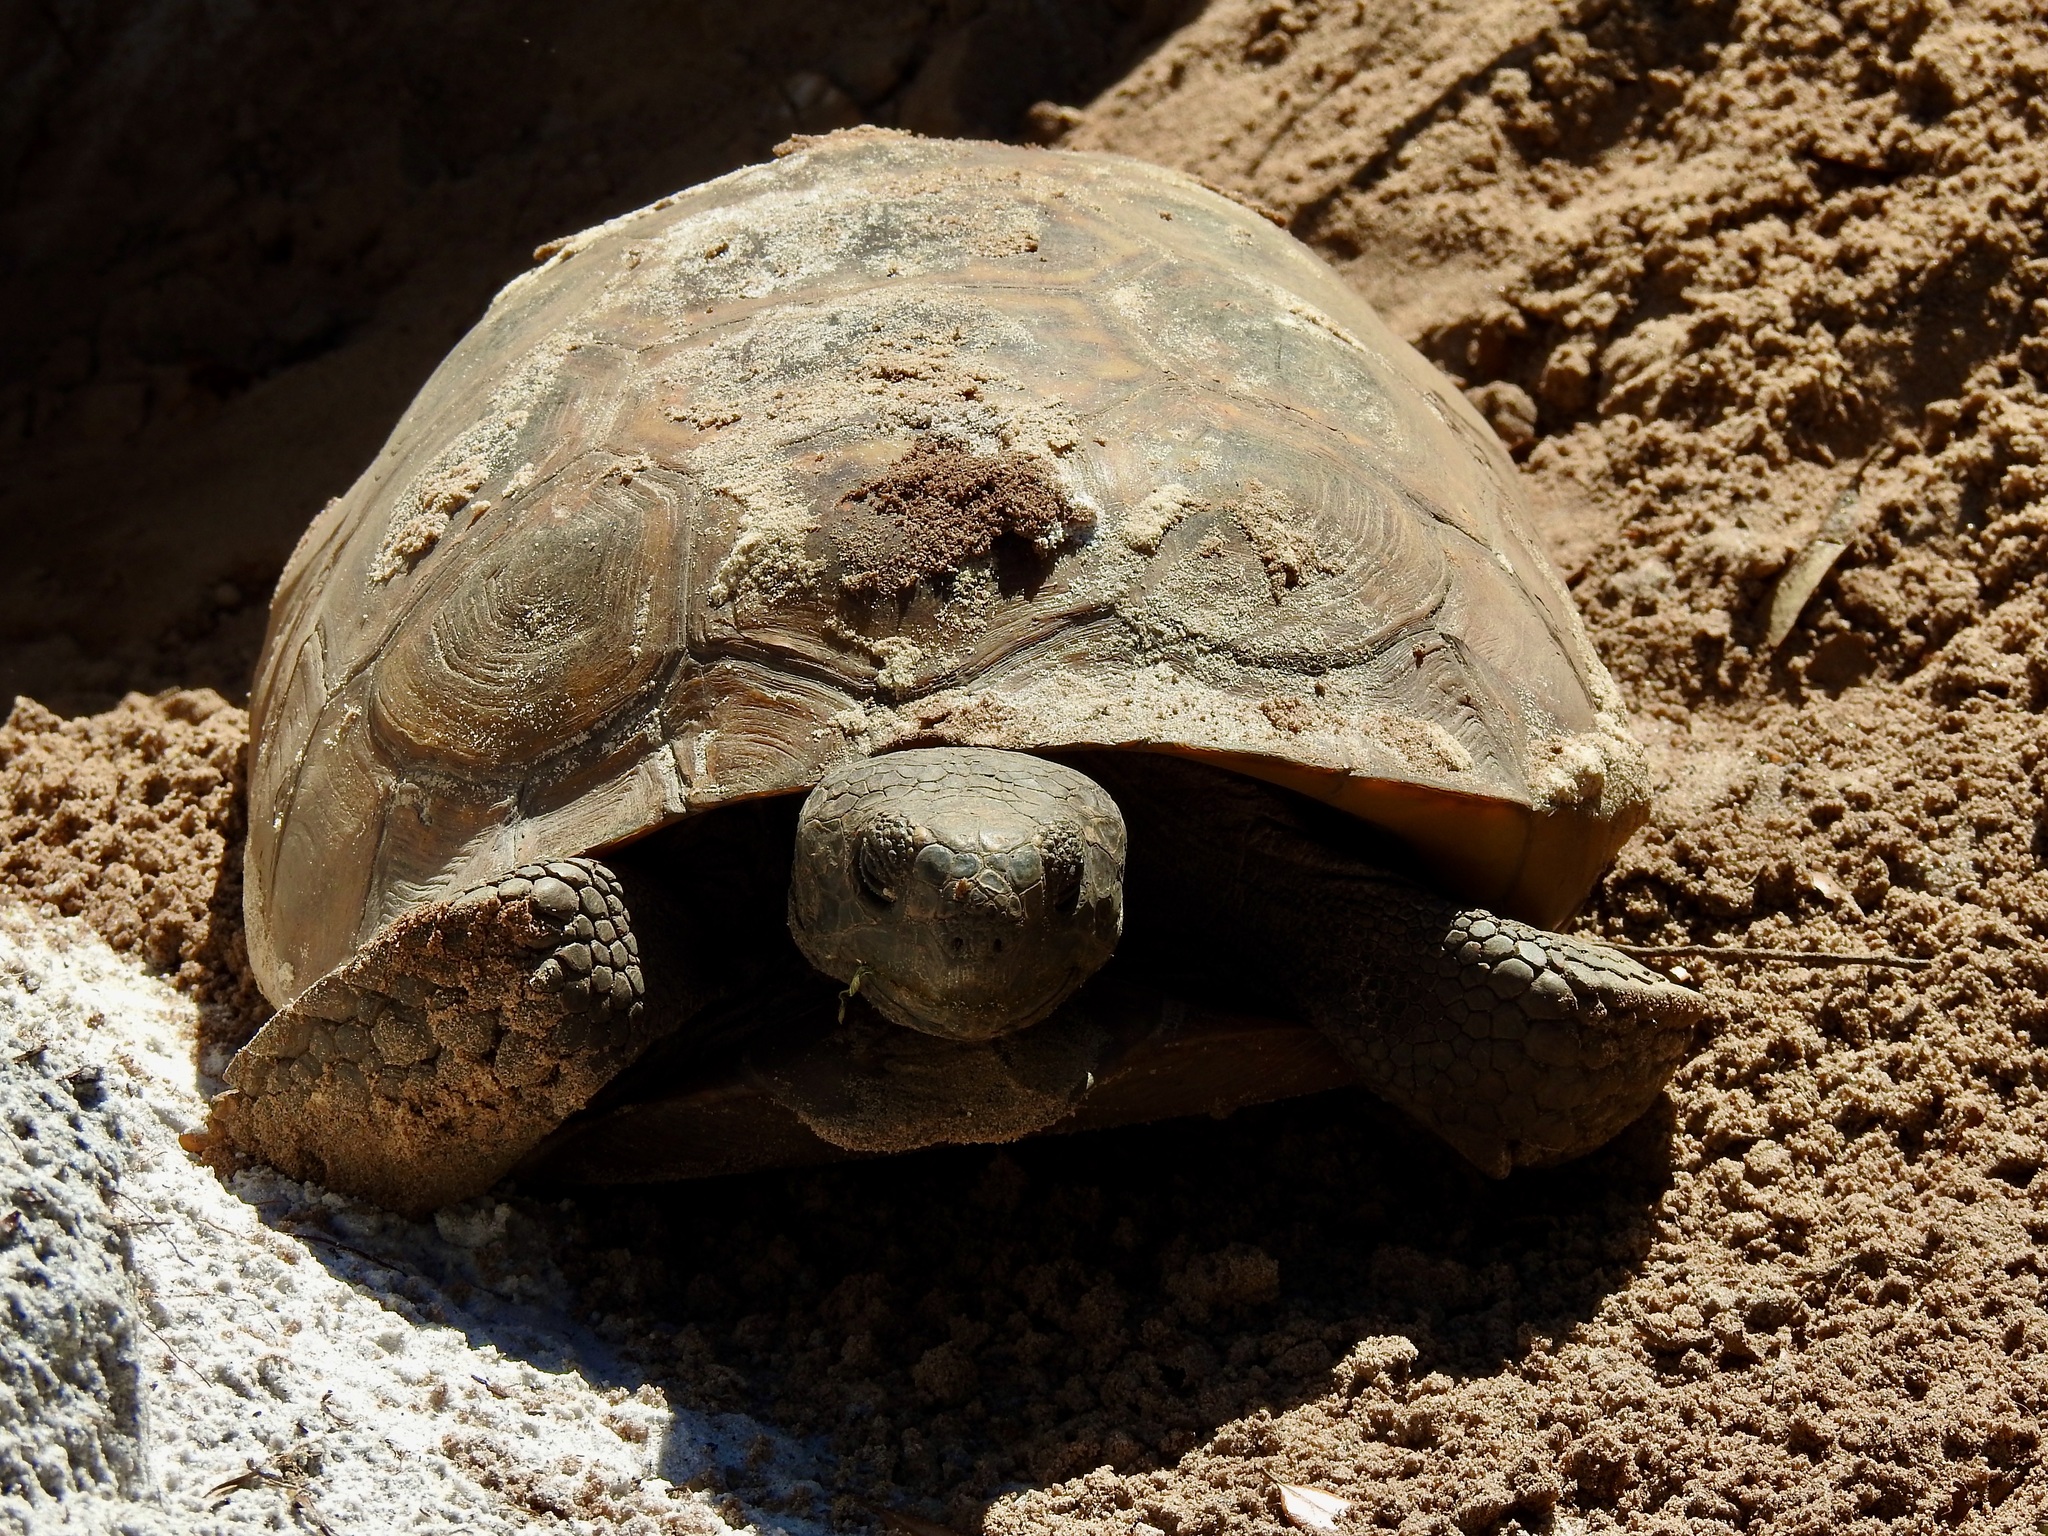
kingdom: Animalia
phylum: Chordata
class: Testudines
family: Testudinidae
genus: Gopherus
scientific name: Gopherus polyphemus
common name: Florida gopher tortoise
